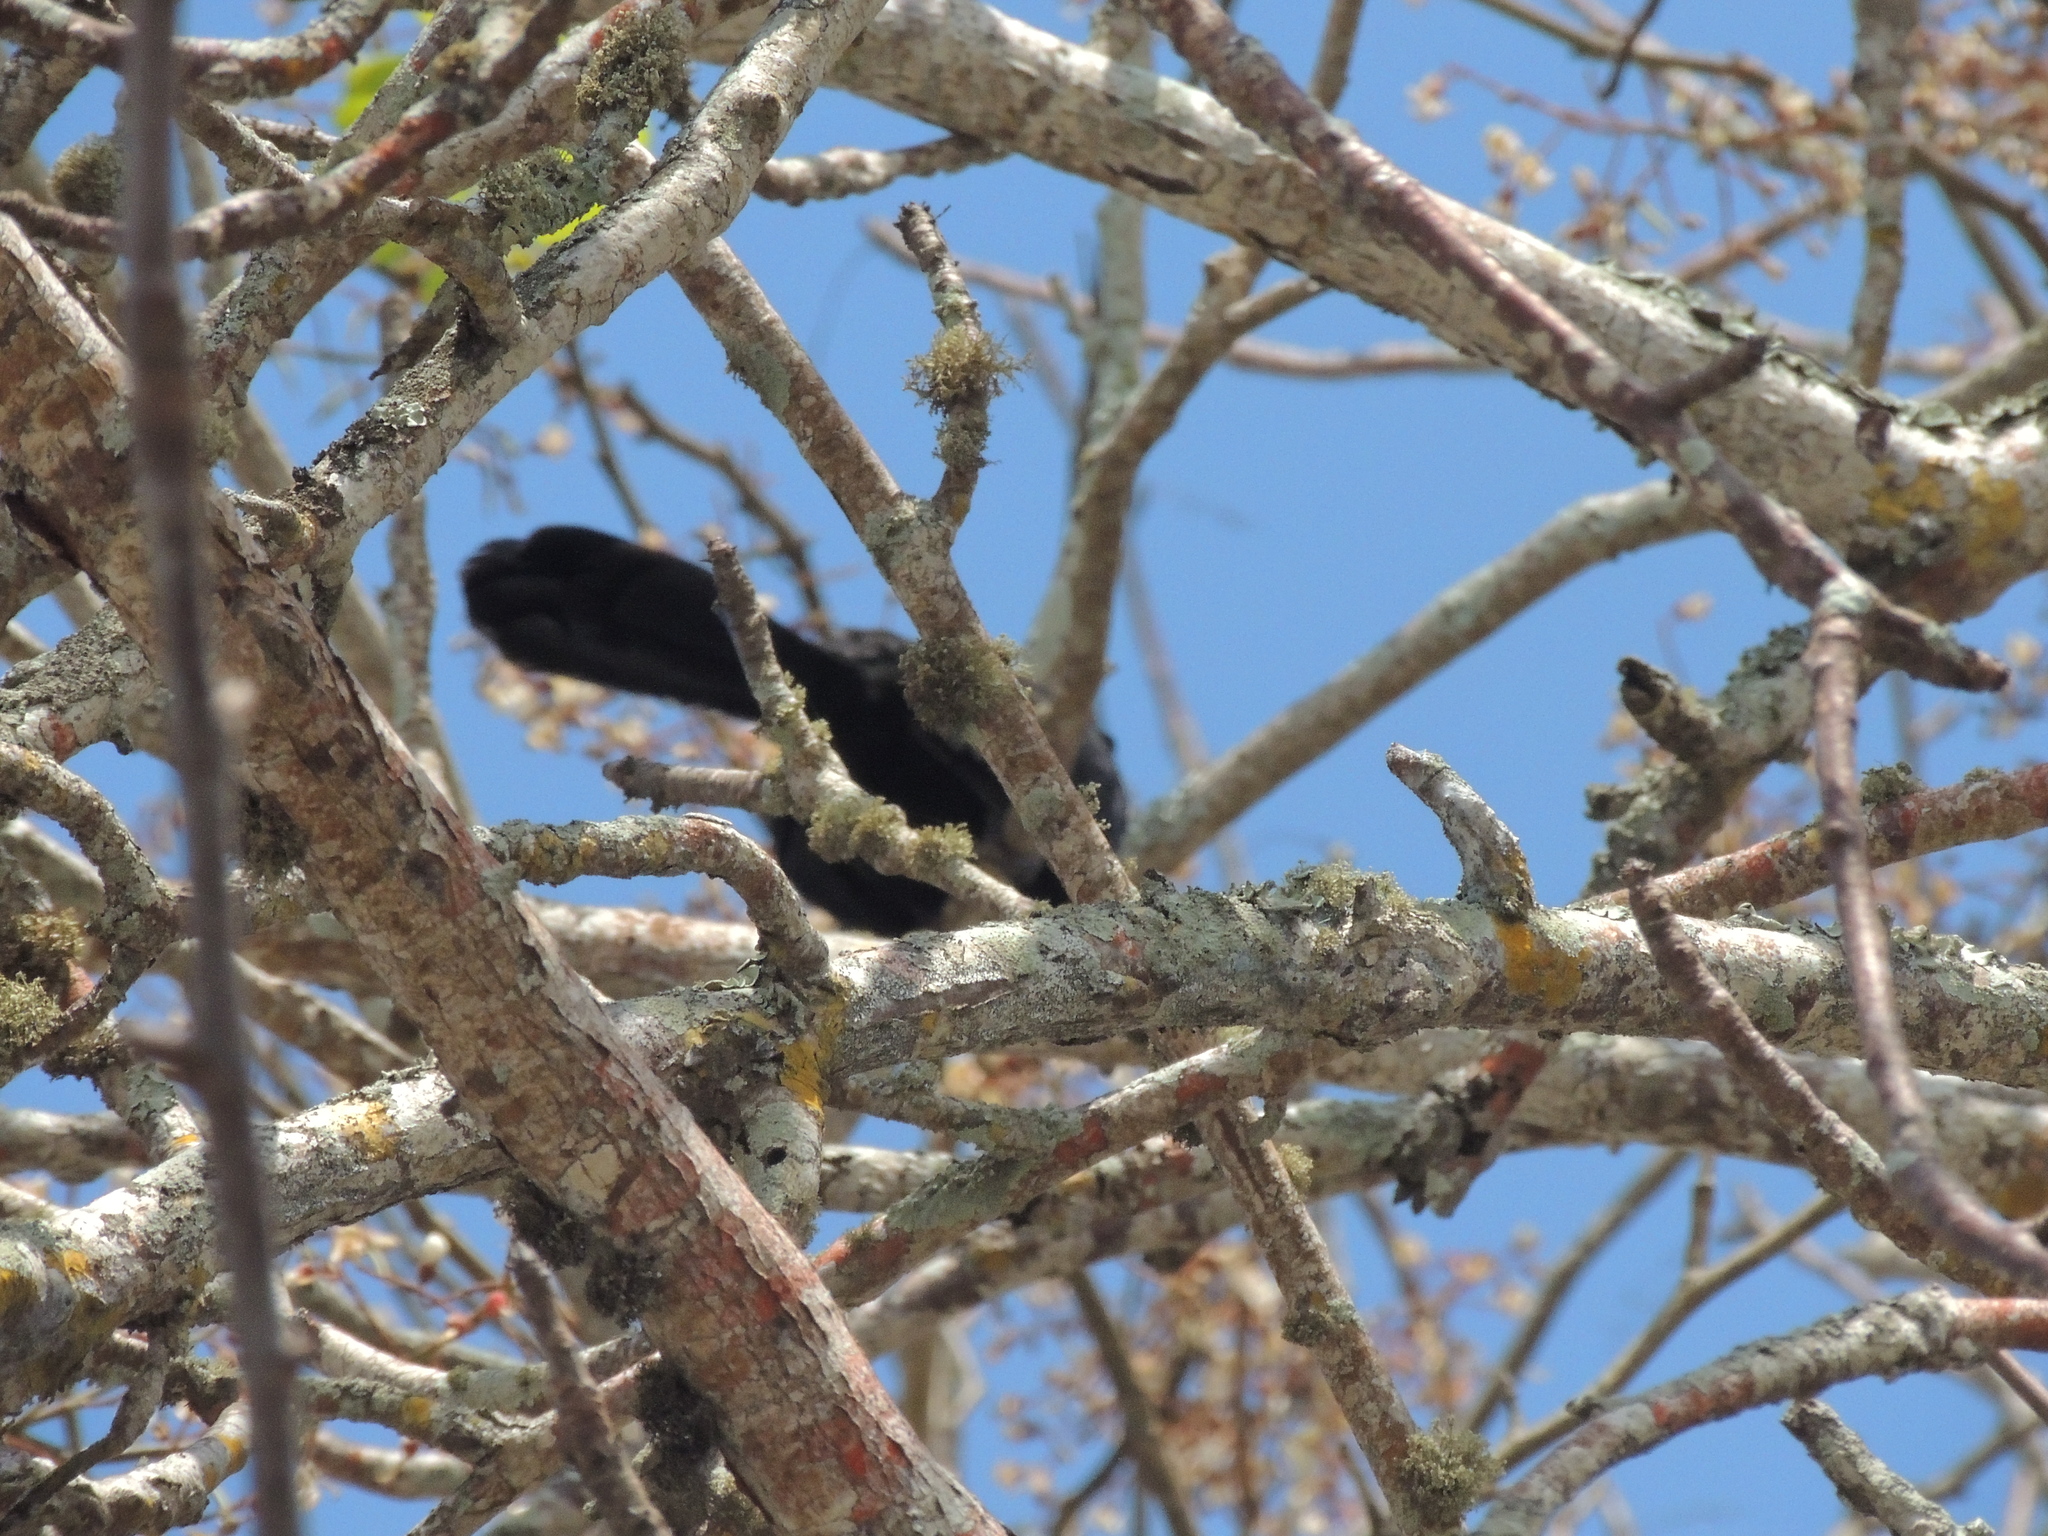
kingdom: Animalia
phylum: Chordata
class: Aves
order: Cuculiformes
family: Cuculidae
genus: Crotophaga
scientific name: Crotophaga ani
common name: Smooth-billed ani
